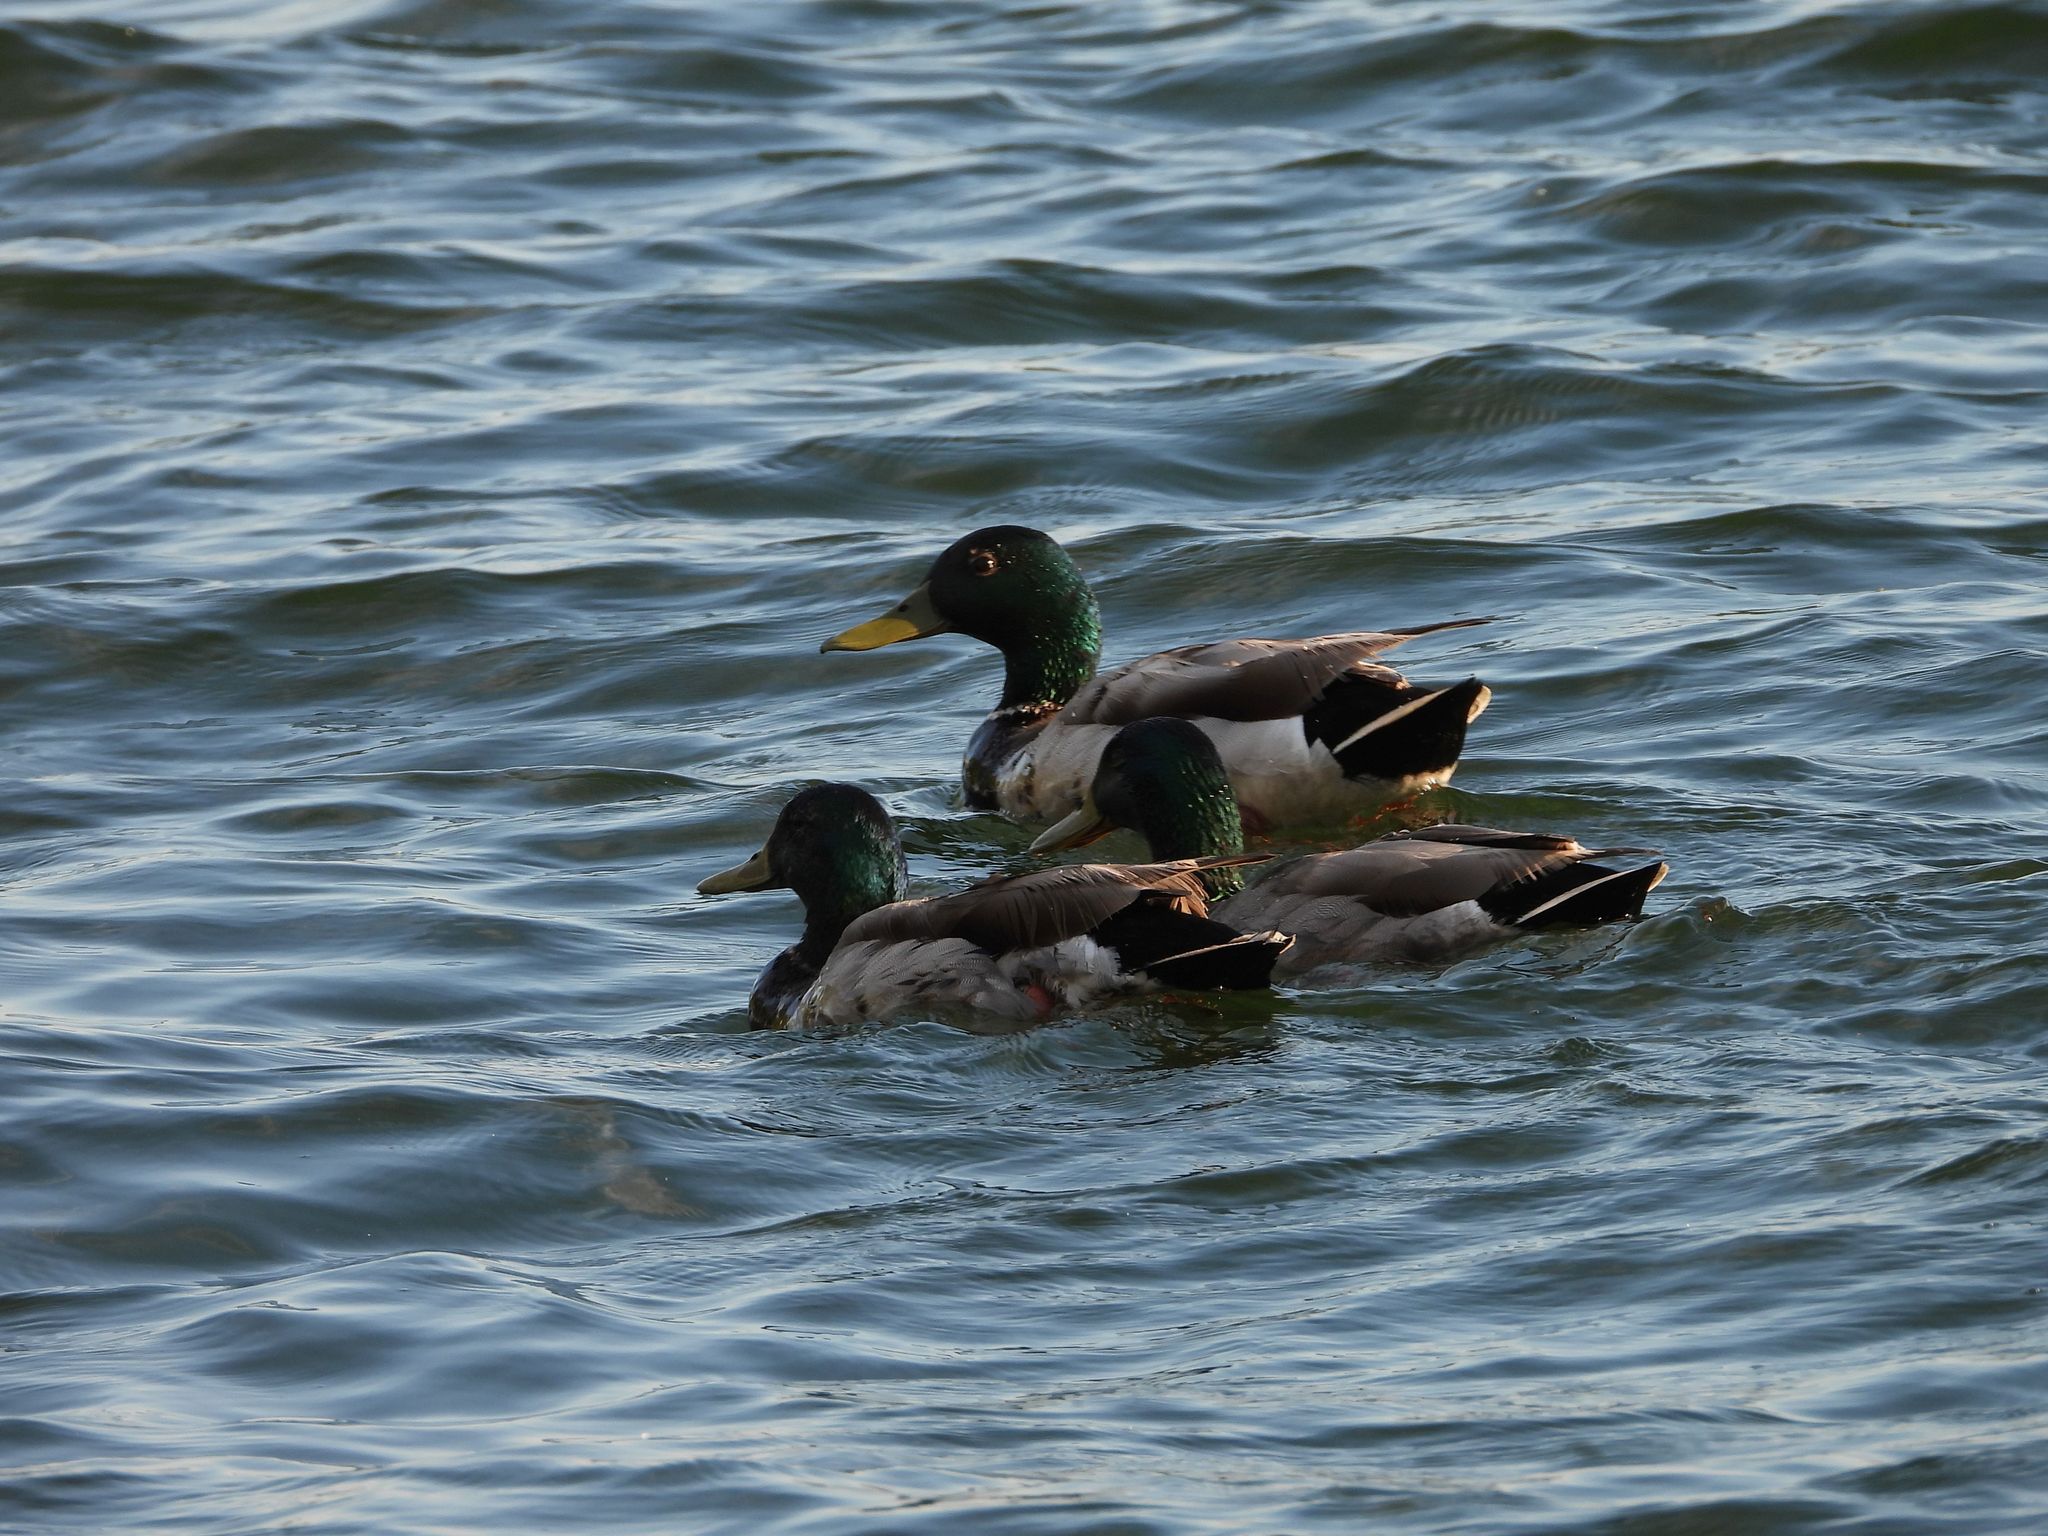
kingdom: Animalia
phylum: Chordata
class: Aves
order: Anseriformes
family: Anatidae
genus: Anas
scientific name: Anas platyrhynchos
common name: Mallard
